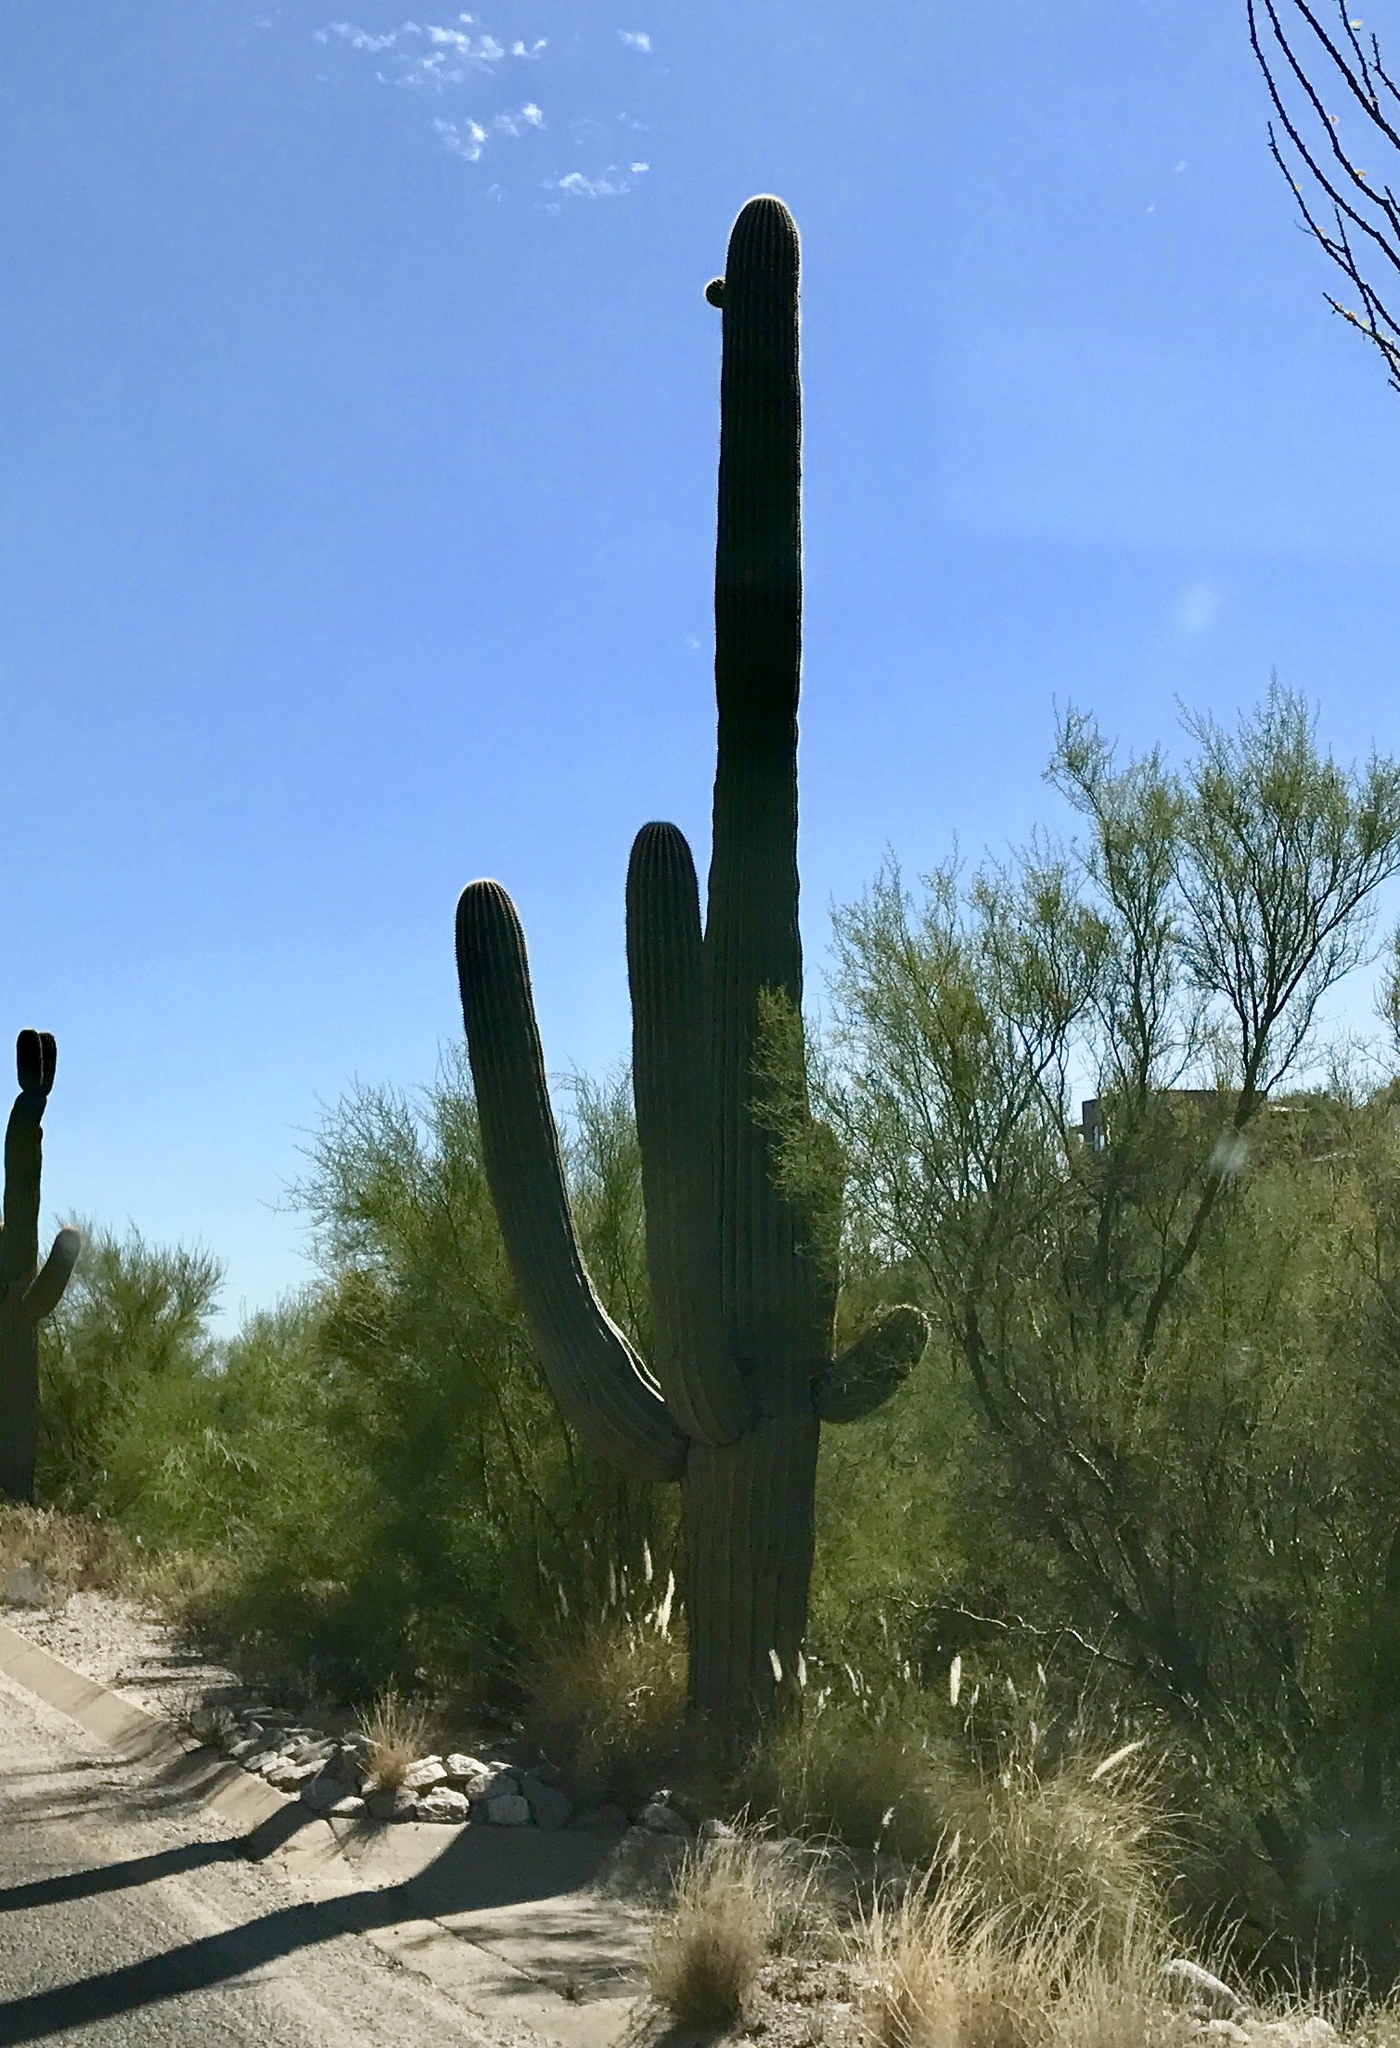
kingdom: Plantae
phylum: Tracheophyta
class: Magnoliopsida
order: Caryophyllales
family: Cactaceae
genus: Carnegiea
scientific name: Carnegiea gigantea
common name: Saguaro
